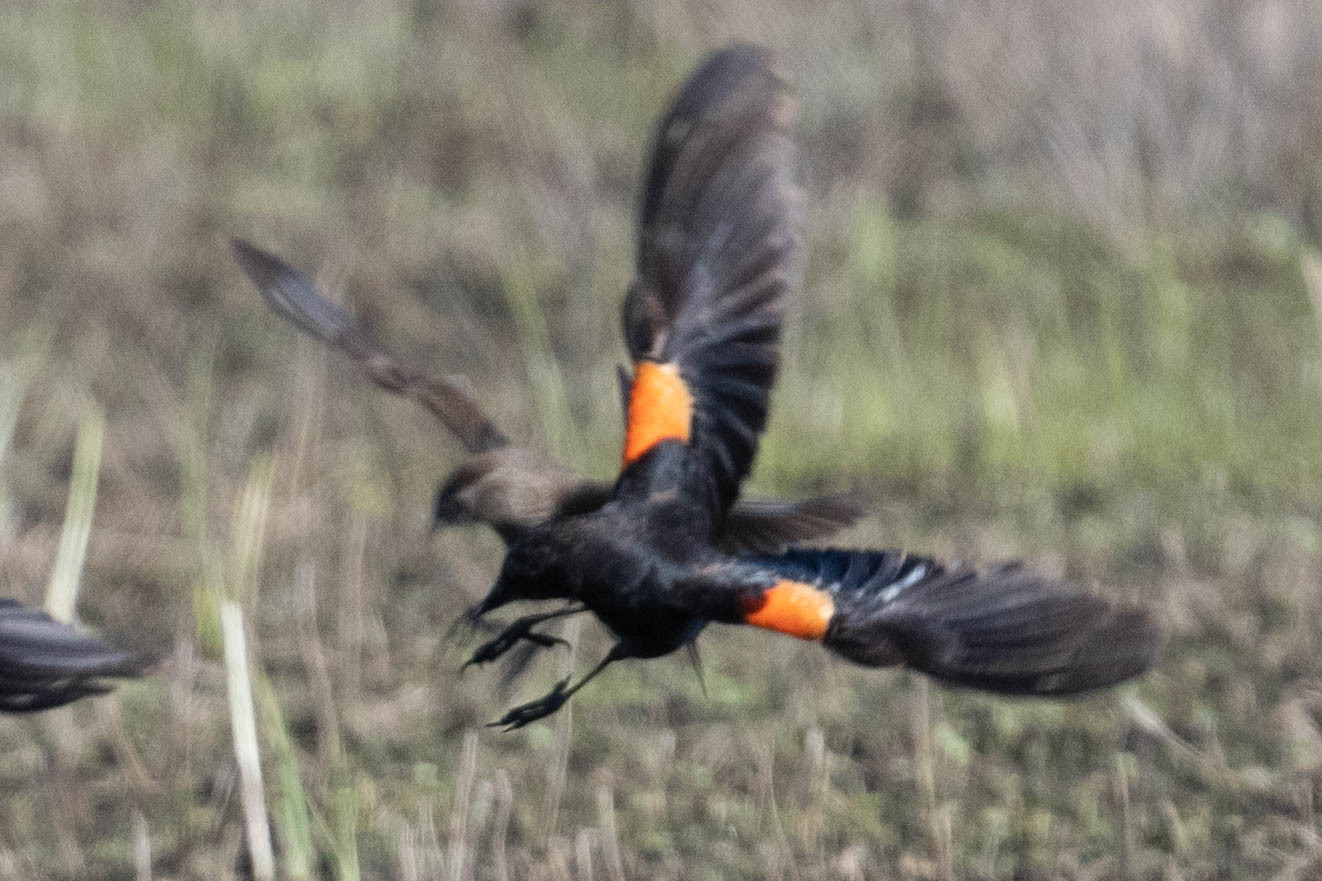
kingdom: Animalia
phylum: Chordata
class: Aves
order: Passeriformes
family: Icteridae
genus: Xanthocephalus
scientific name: Xanthocephalus xanthocephalus
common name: Yellow-headed blackbird
